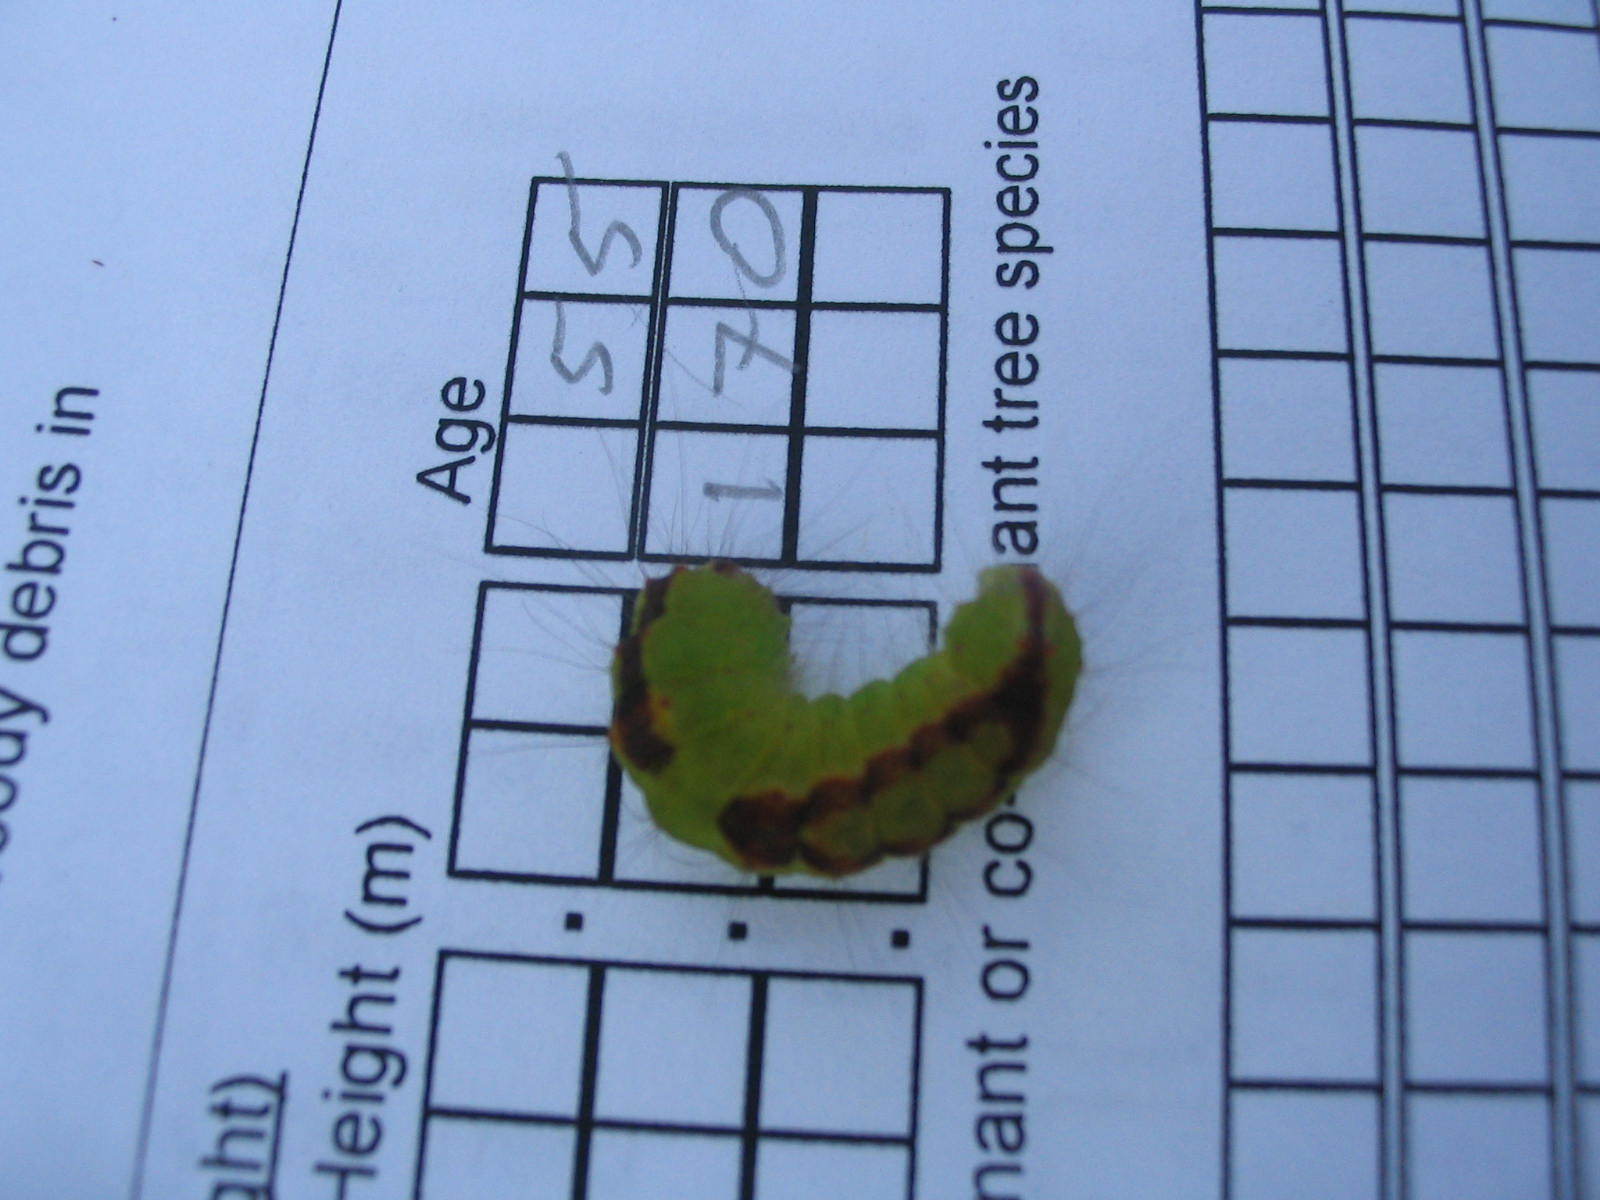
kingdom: Animalia
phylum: Arthropoda
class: Insecta
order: Lepidoptera
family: Noctuidae
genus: Acronicta
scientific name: Acronicta tritona
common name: Triton dagger
